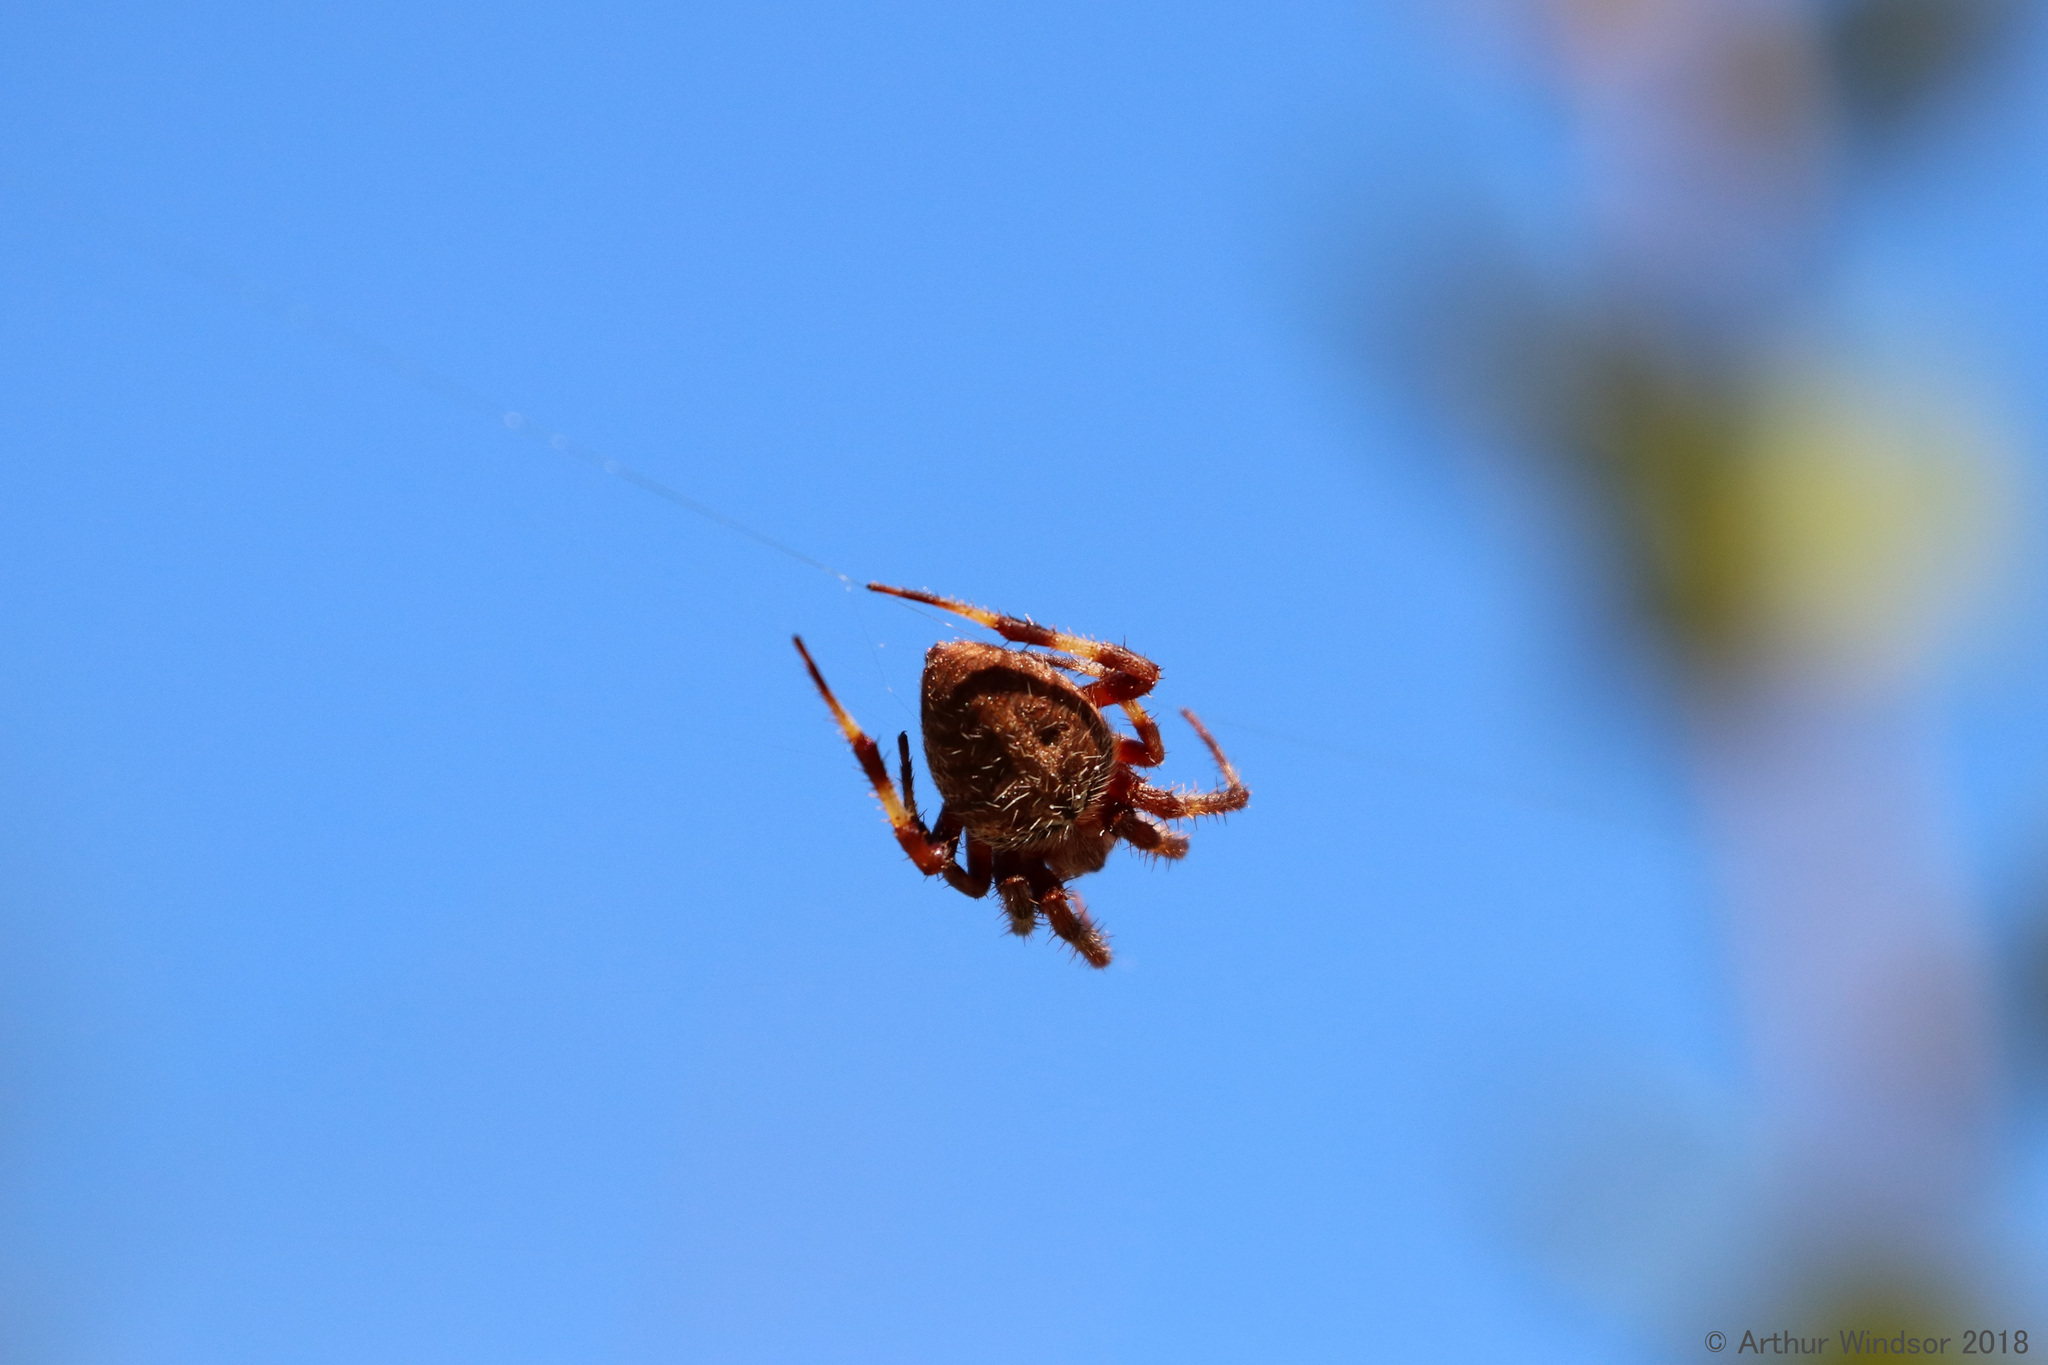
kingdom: Animalia
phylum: Arthropoda
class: Arachnida
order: Araneae
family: Araneidae
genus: Neoscona
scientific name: Neoscona crucifera
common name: Spotted orbweaver
